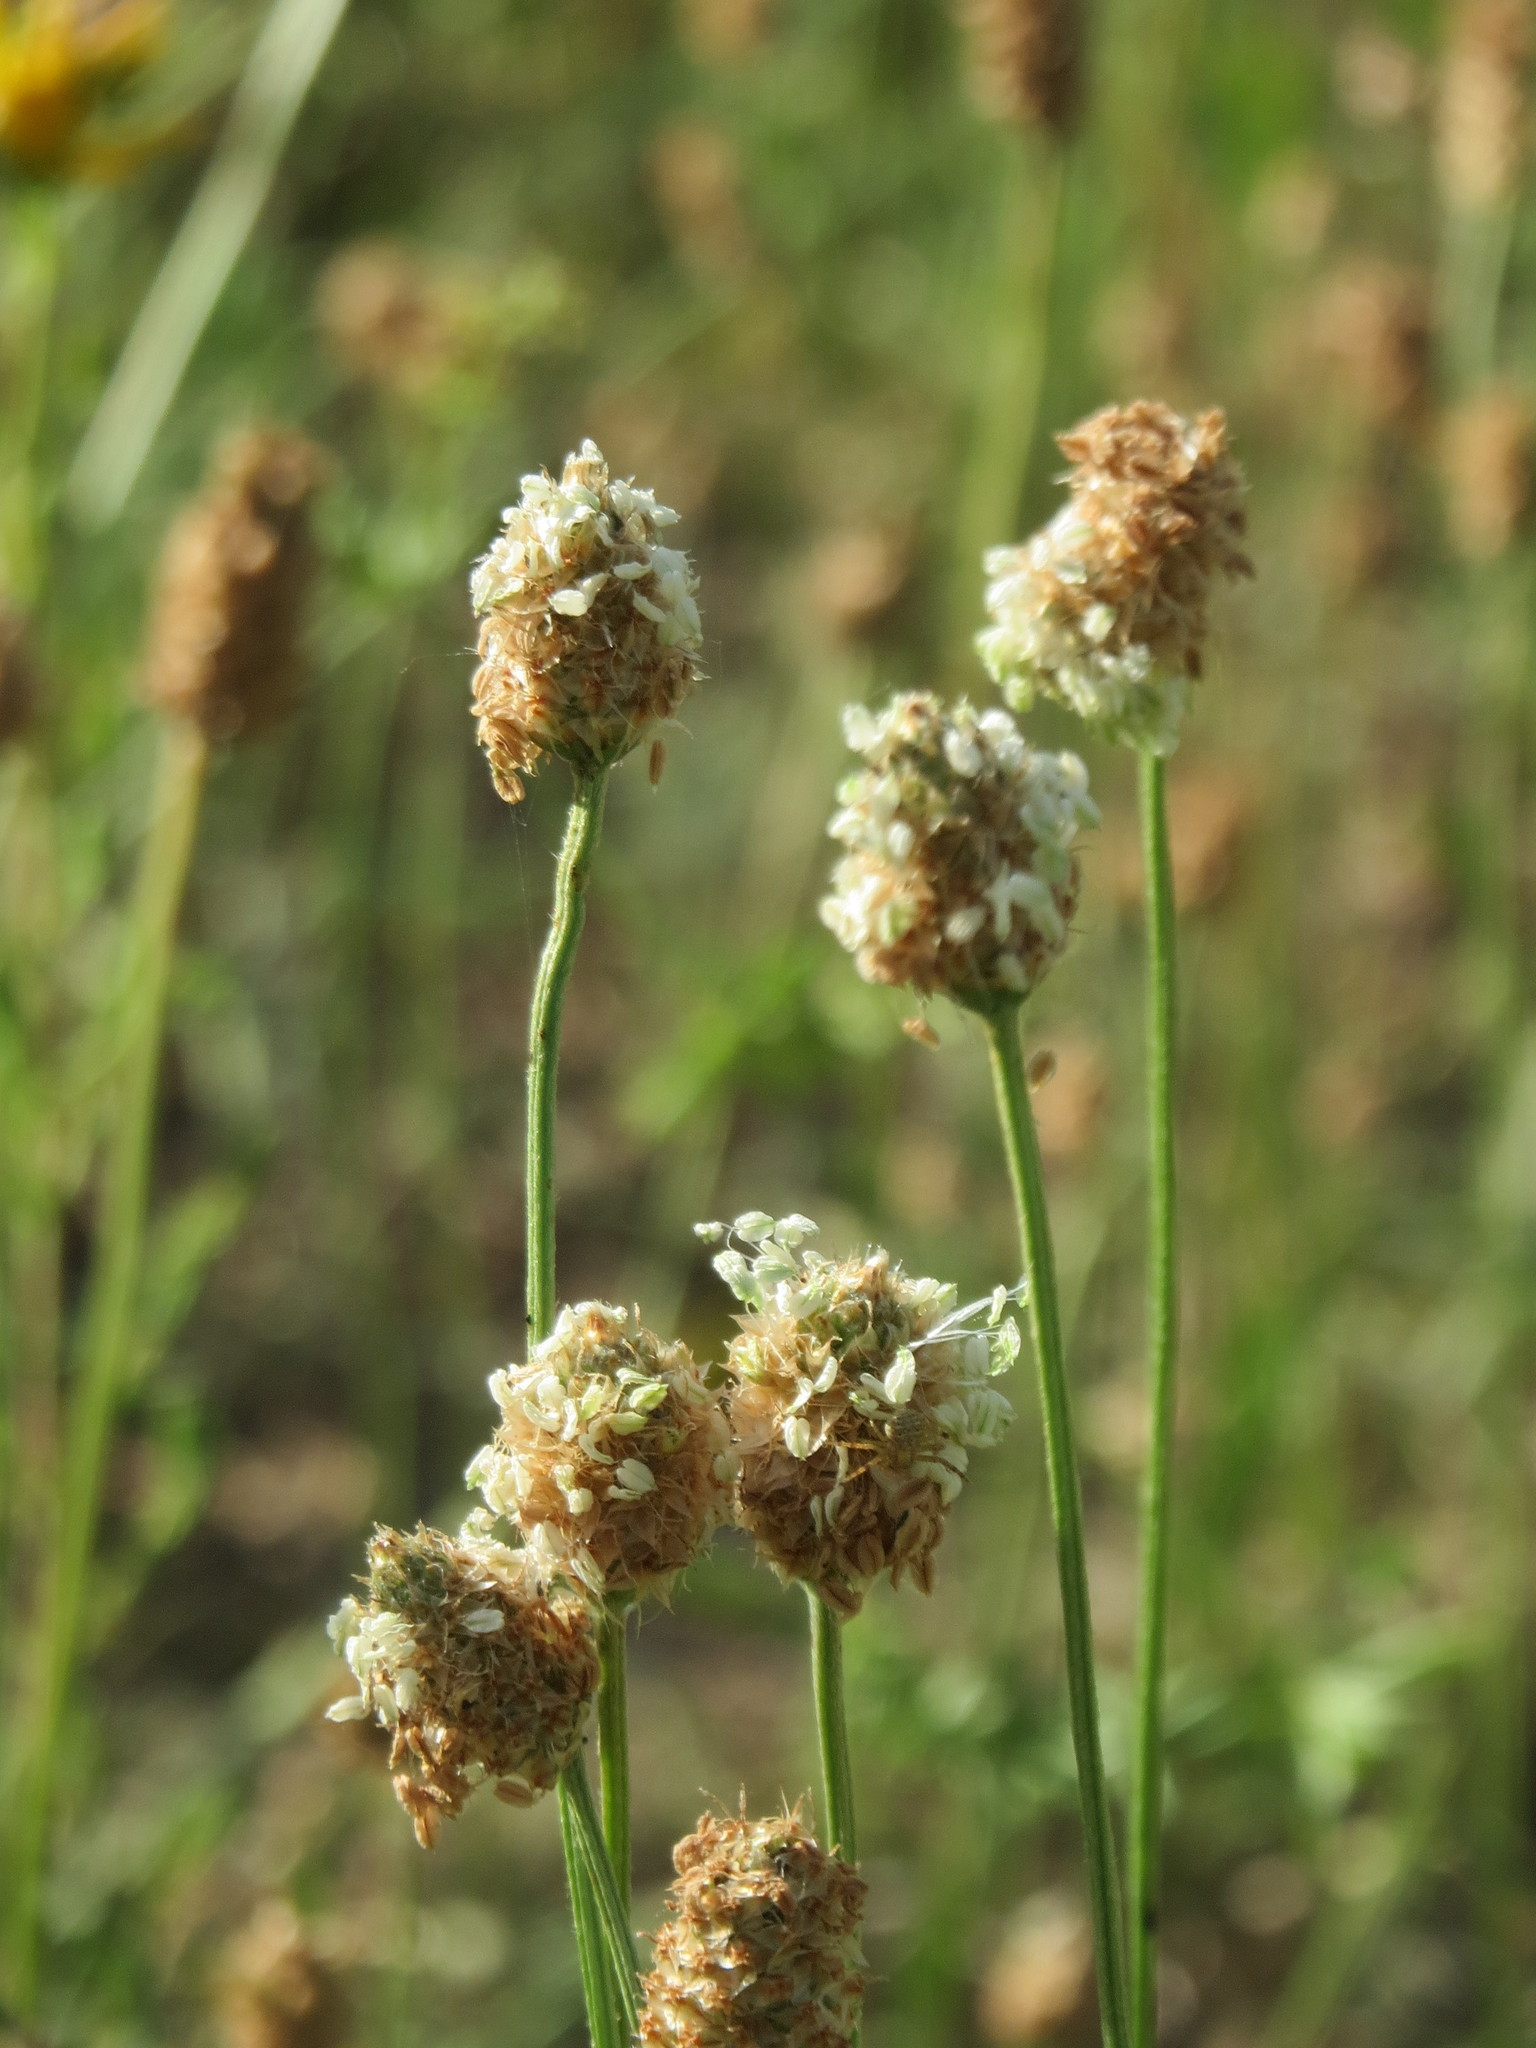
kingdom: Plantae
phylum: Tracheophyta
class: Magnoliopsida
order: Lamiales
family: Plantaginaceae
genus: Plantago
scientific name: Plantago lanceolata
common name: Ribwort plantain
